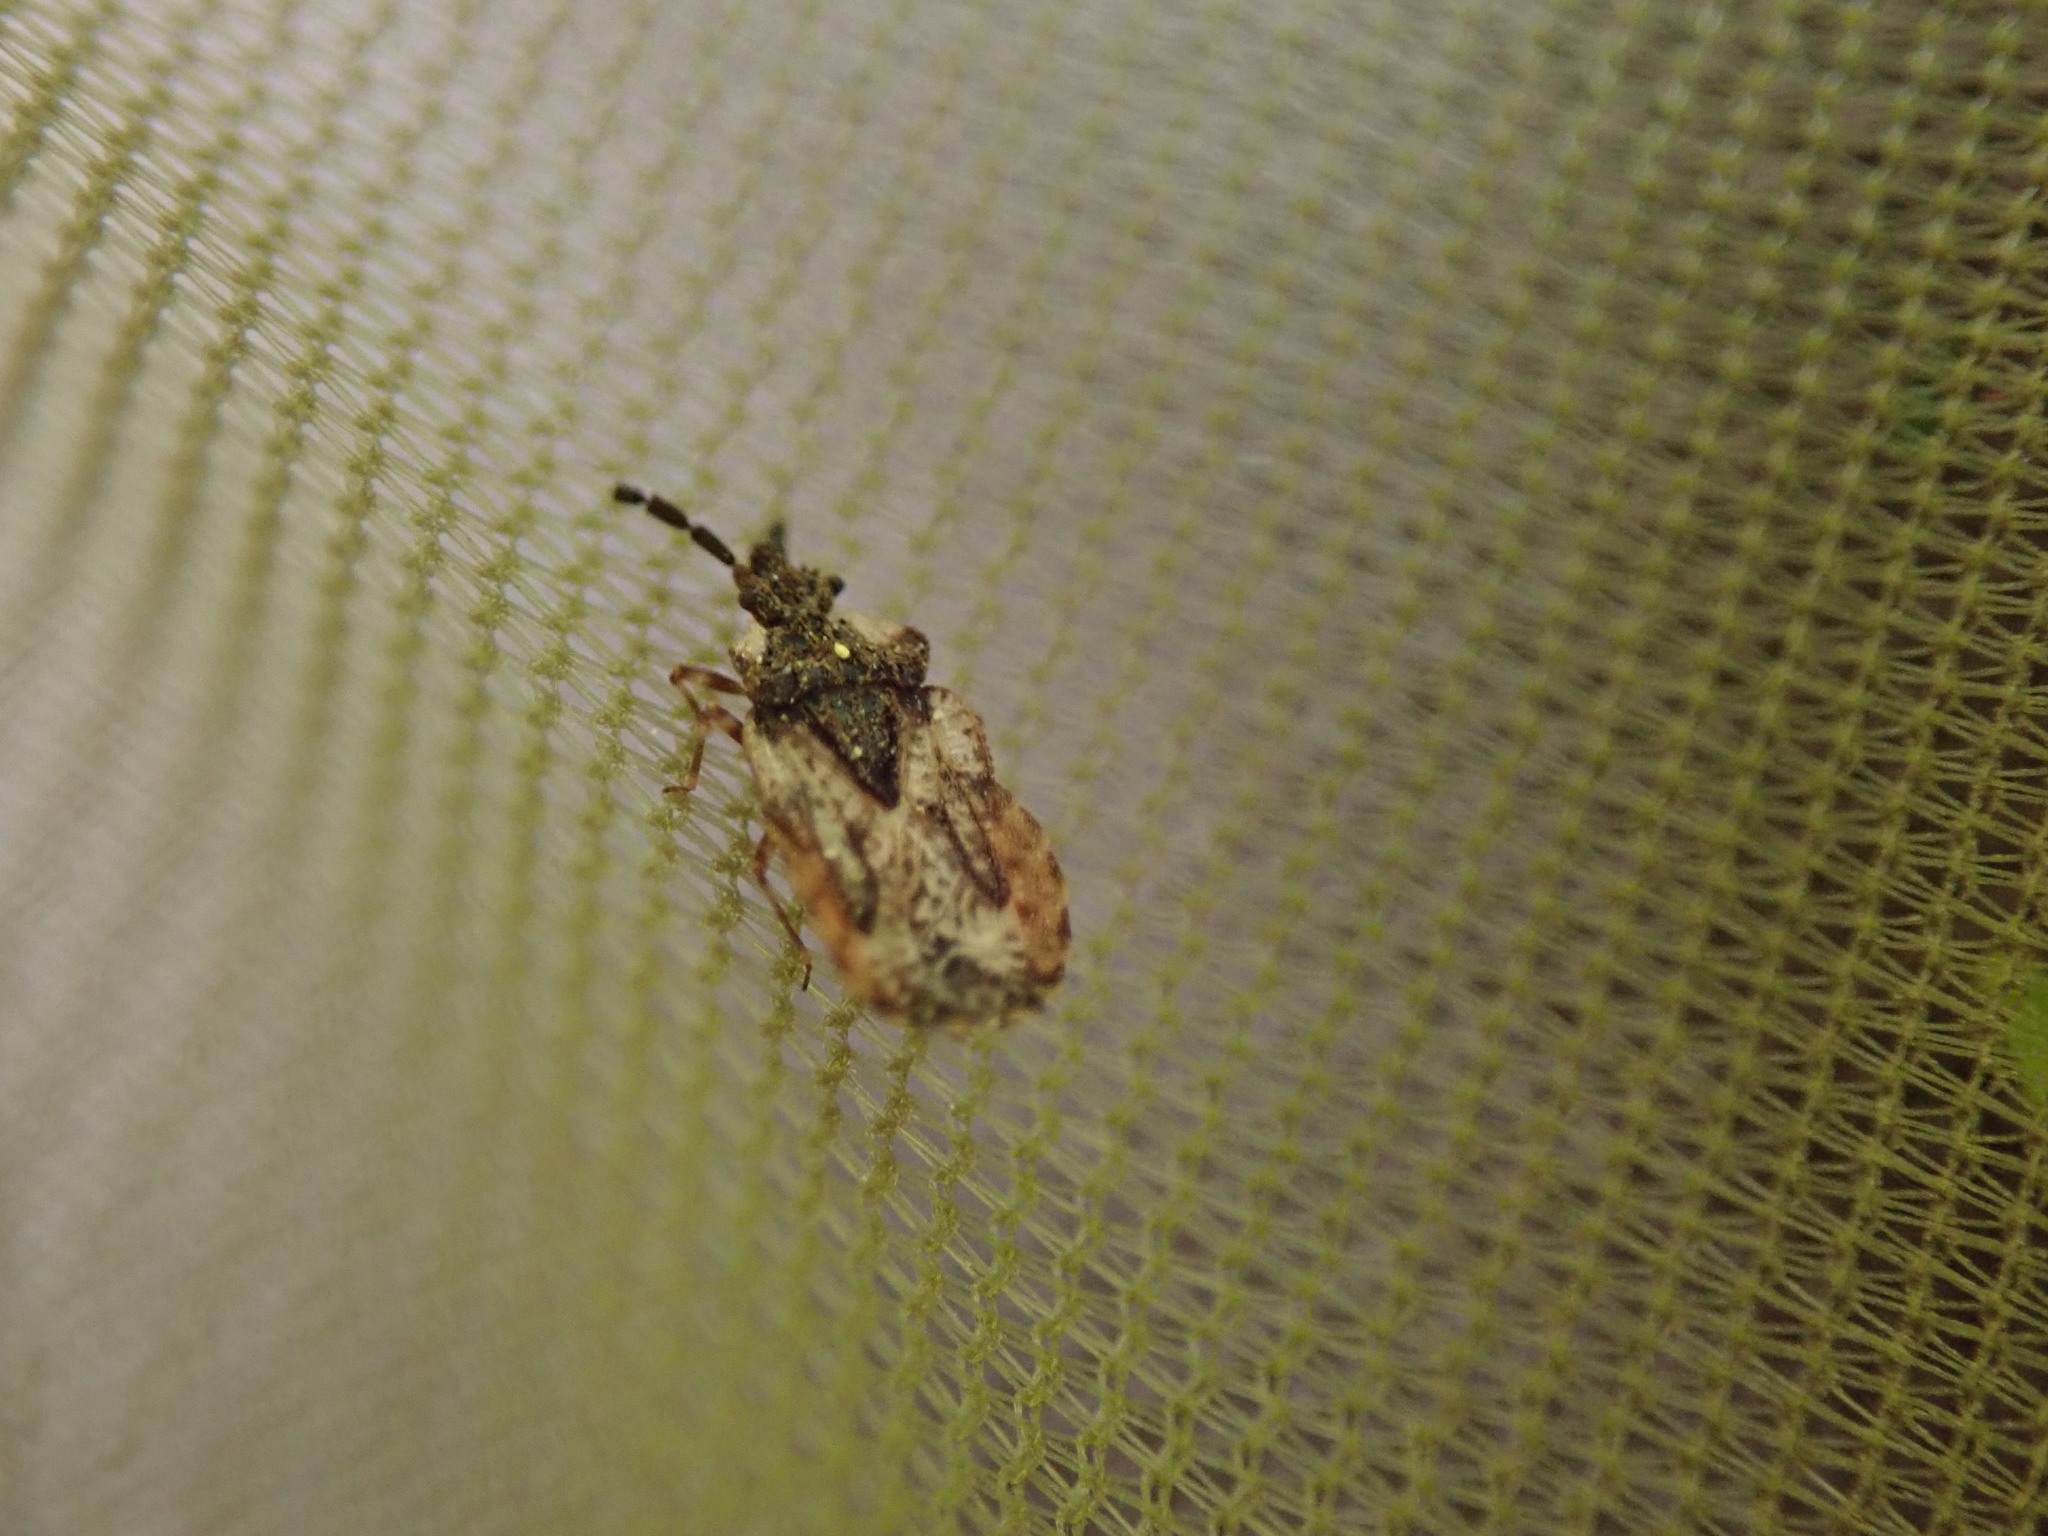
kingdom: Animalia
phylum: Arthropoda
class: Insecta
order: Hemiptera
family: Aradidae
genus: Aradus
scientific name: Aradus depressus
